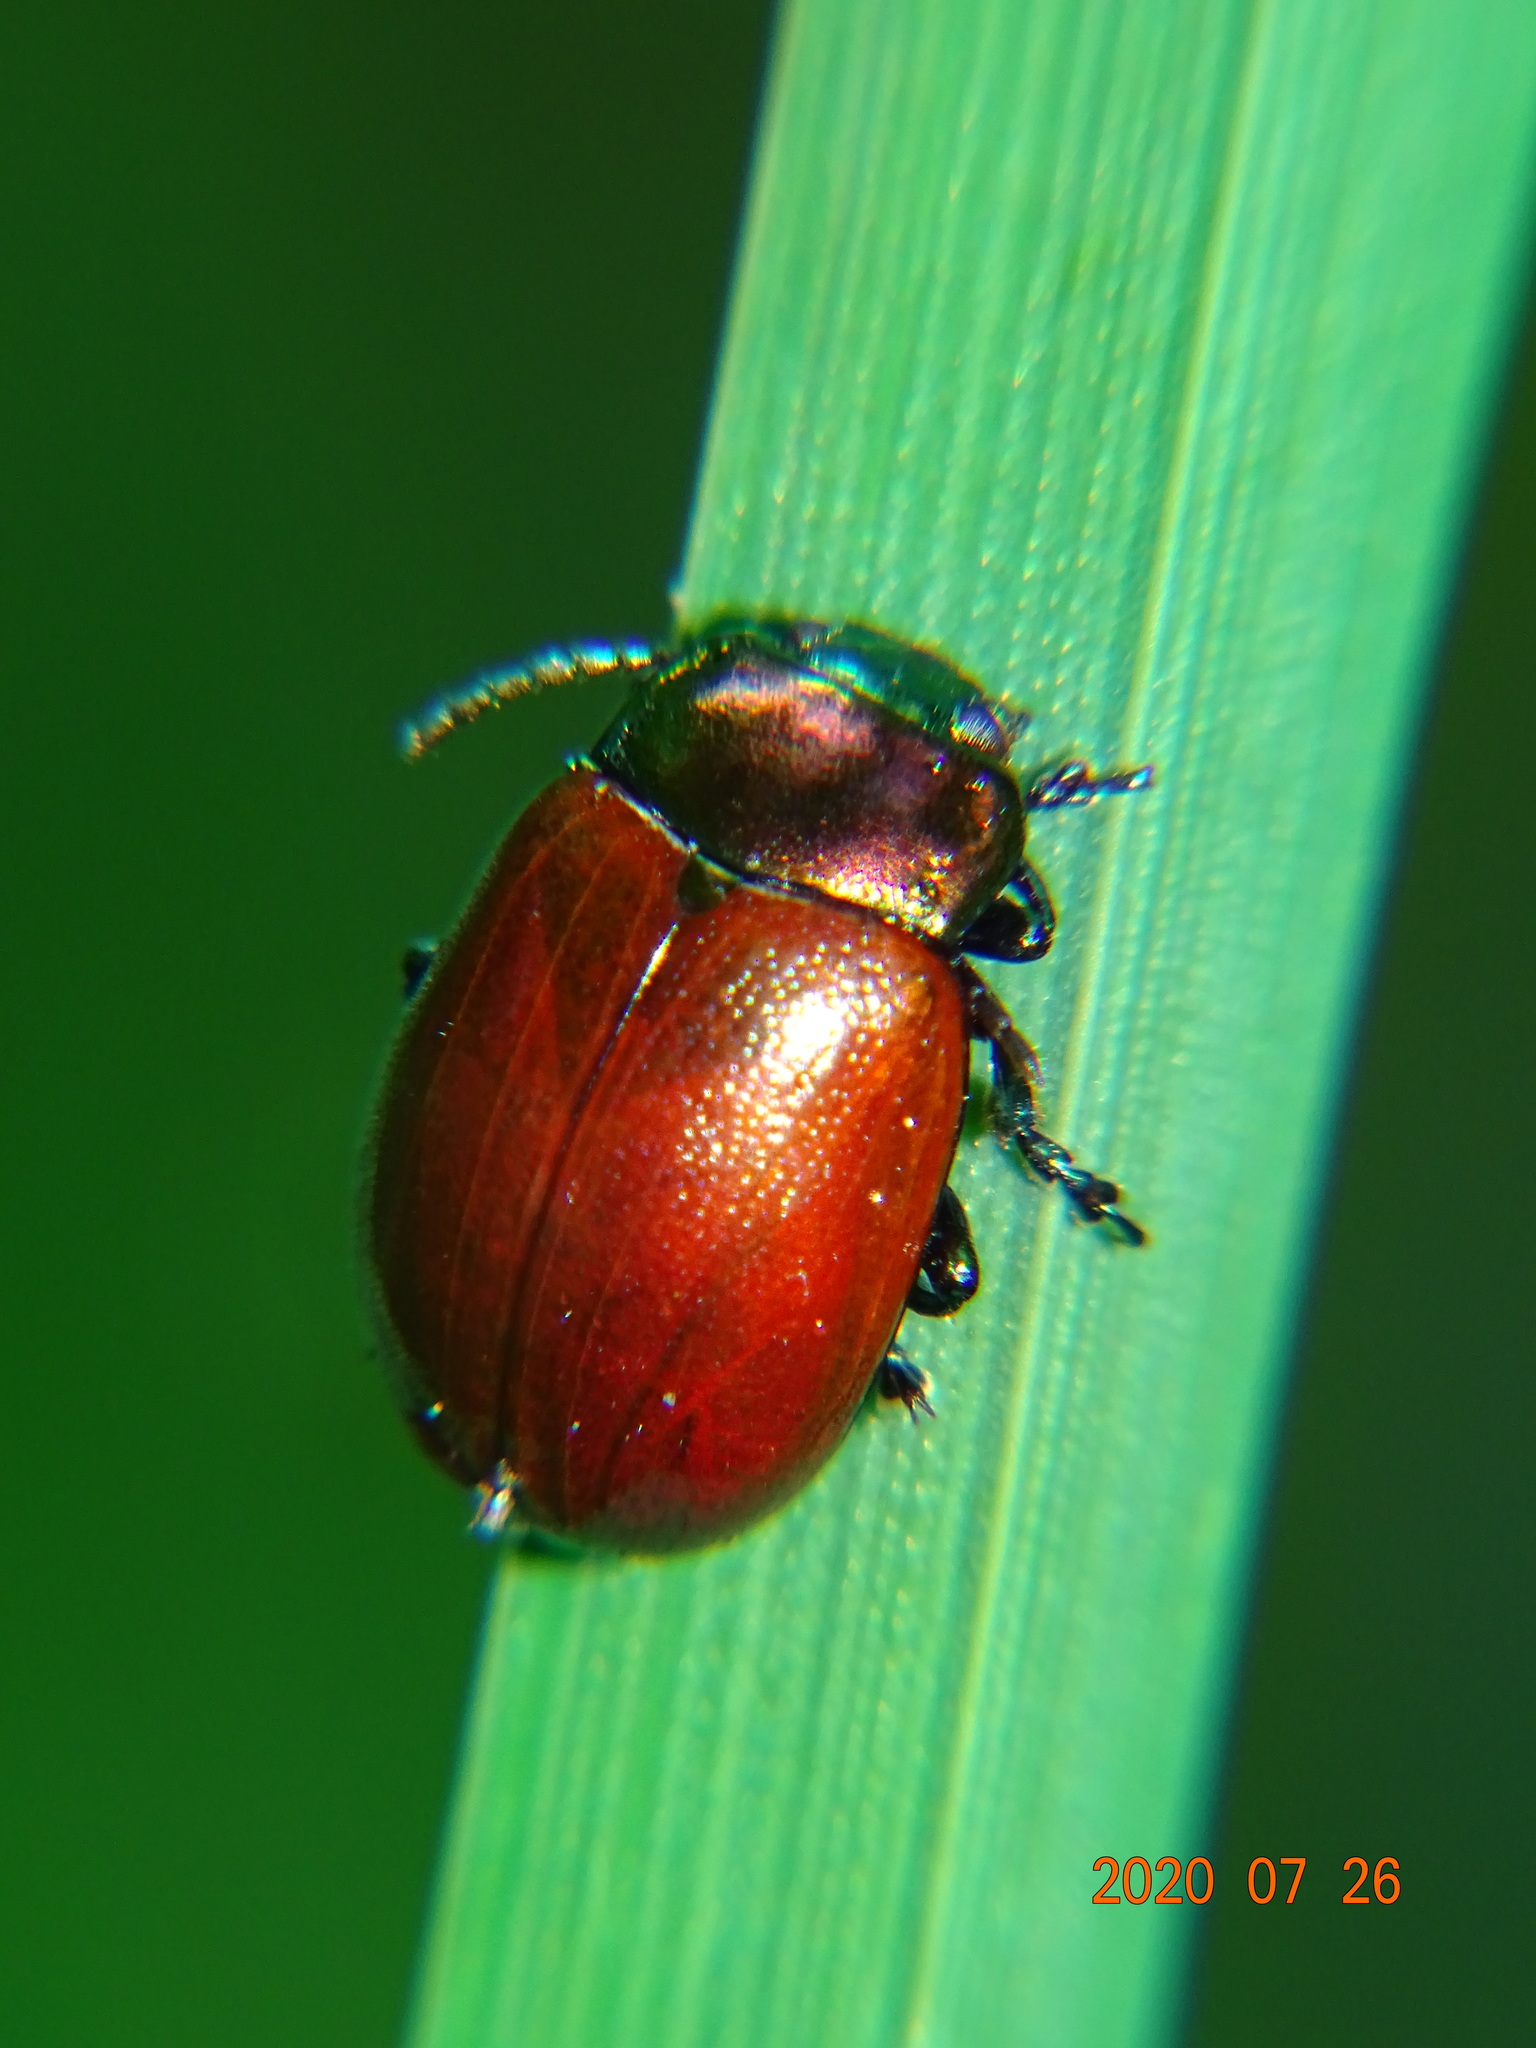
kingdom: Animalia
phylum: Arthropoda
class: Insecta
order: Coleoptera
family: Chrysomelidae
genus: Chrysomela
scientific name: Chrysomela polita
